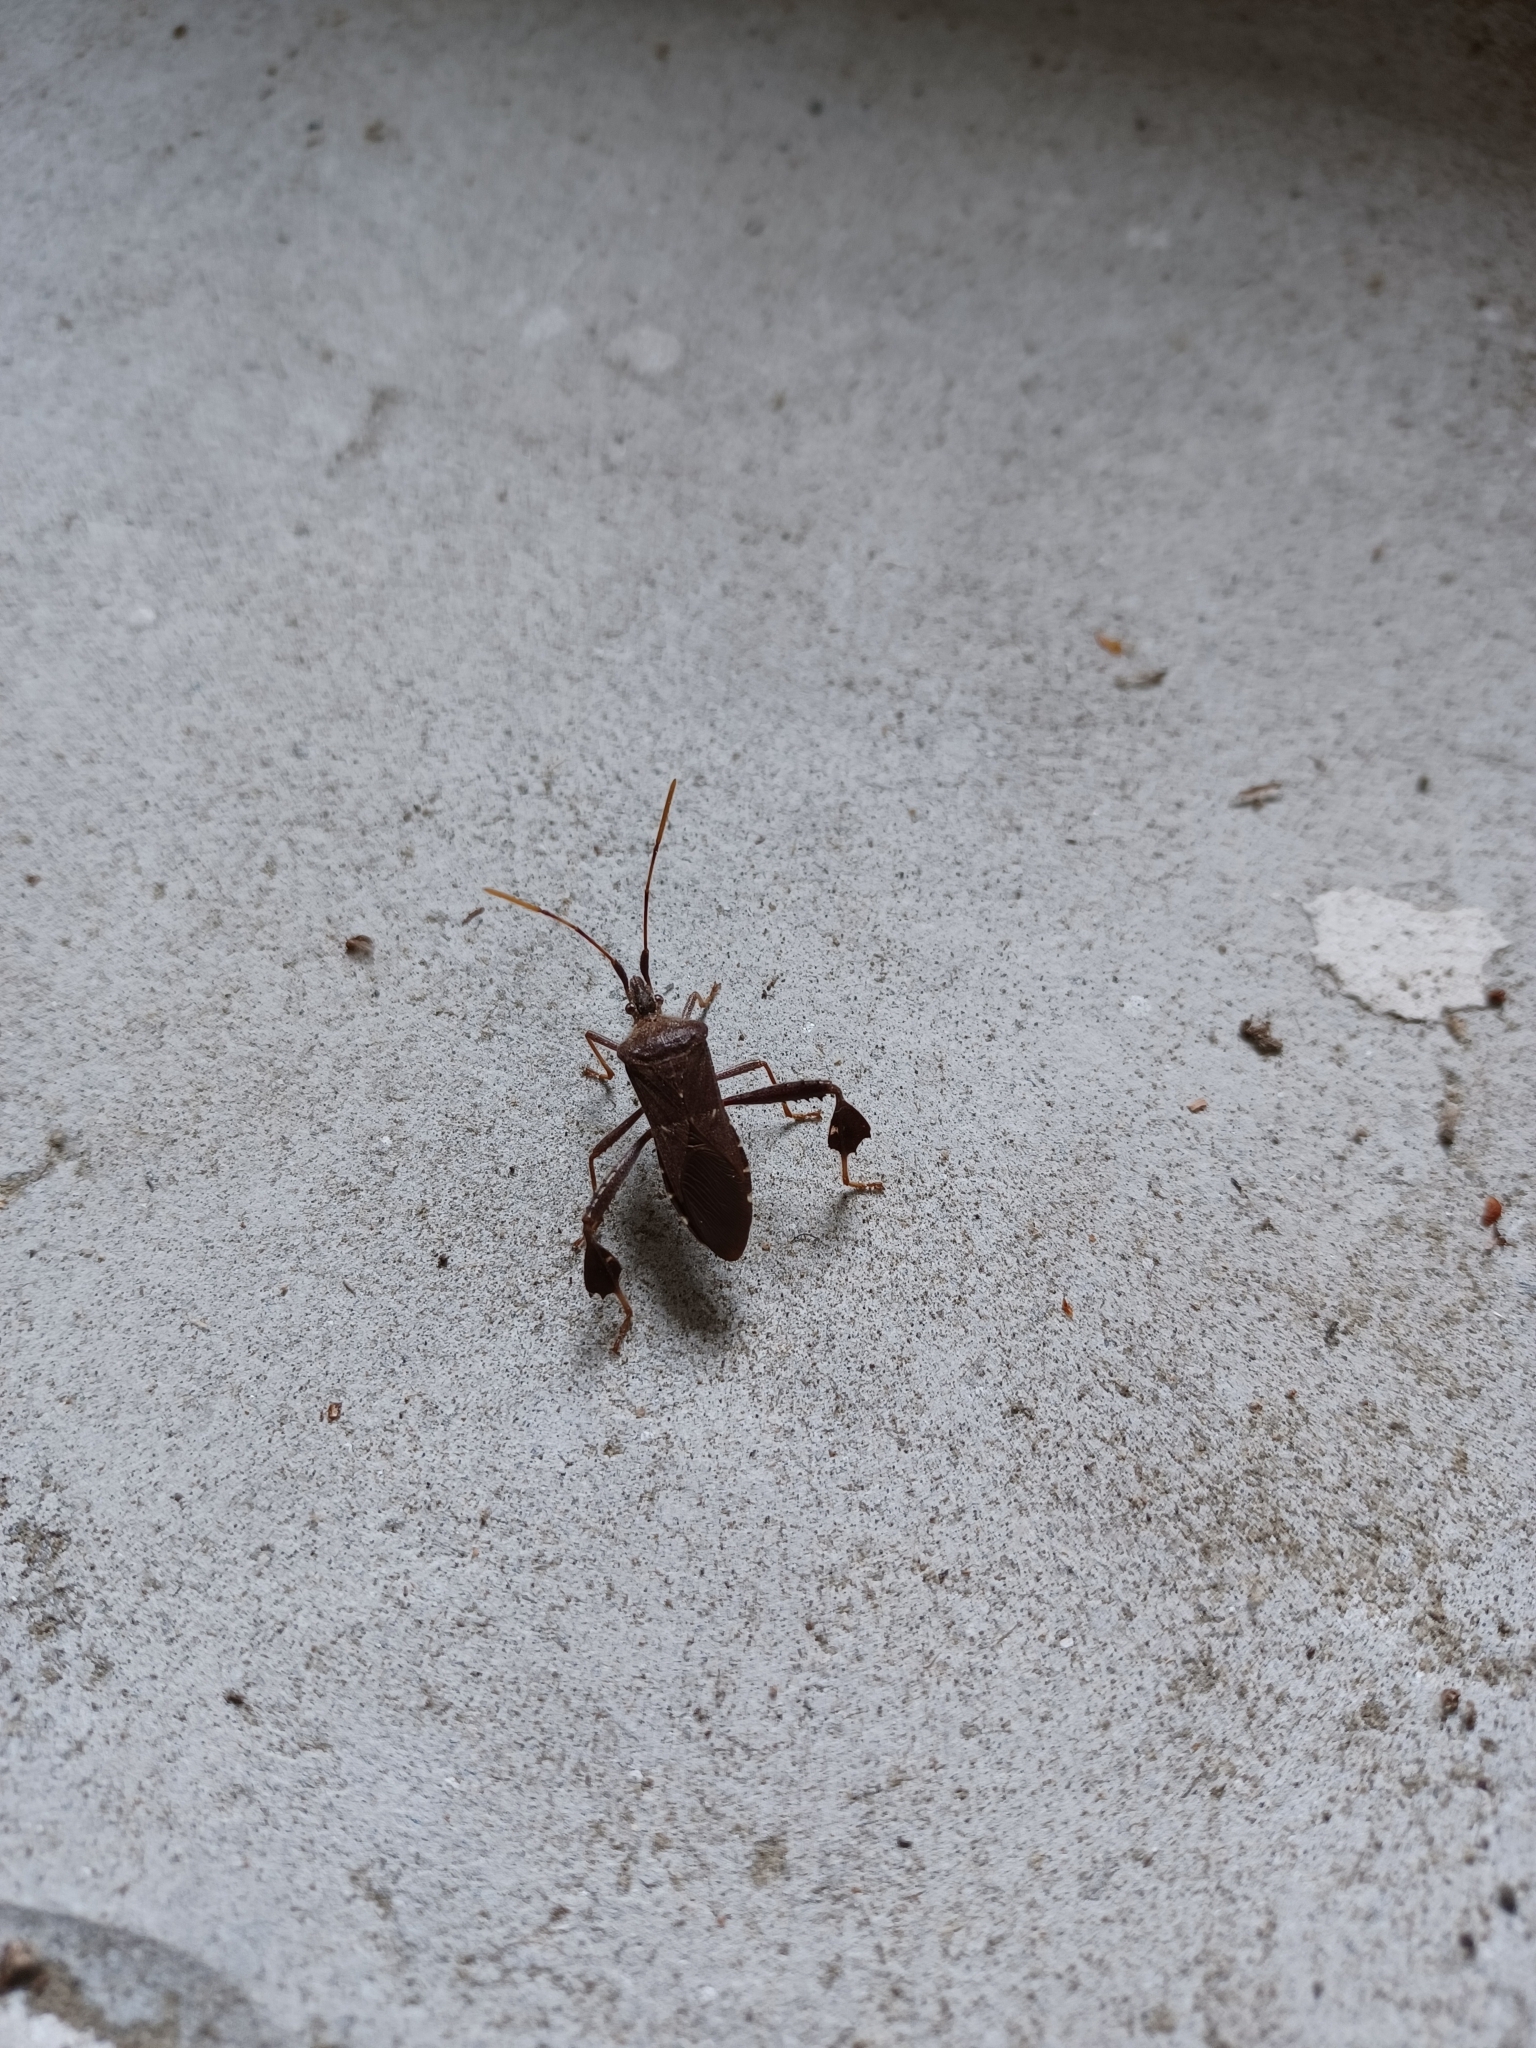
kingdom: Animalia
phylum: Arthropoda
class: Insecta
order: Hemiptera
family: Coreidae
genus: Leptoglossus
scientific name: Leptoglossus oppositus
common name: Northern leaf-footed bug
